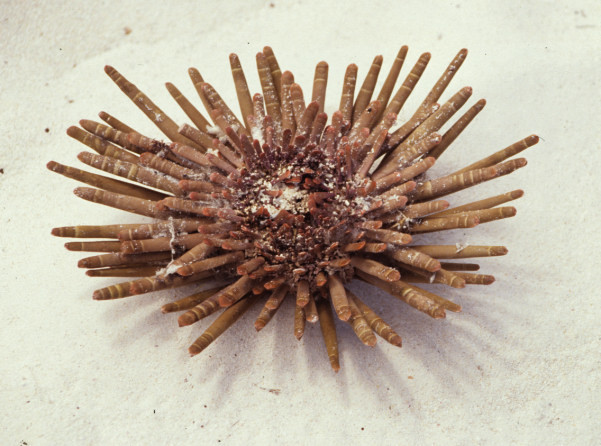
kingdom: Animalia
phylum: Echinodermata
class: Echinoidea
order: Camarodonta
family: Echinometridae
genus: Heterocentrotus
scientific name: Heterocentrotus mamillatus
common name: Slate pencil urchin
